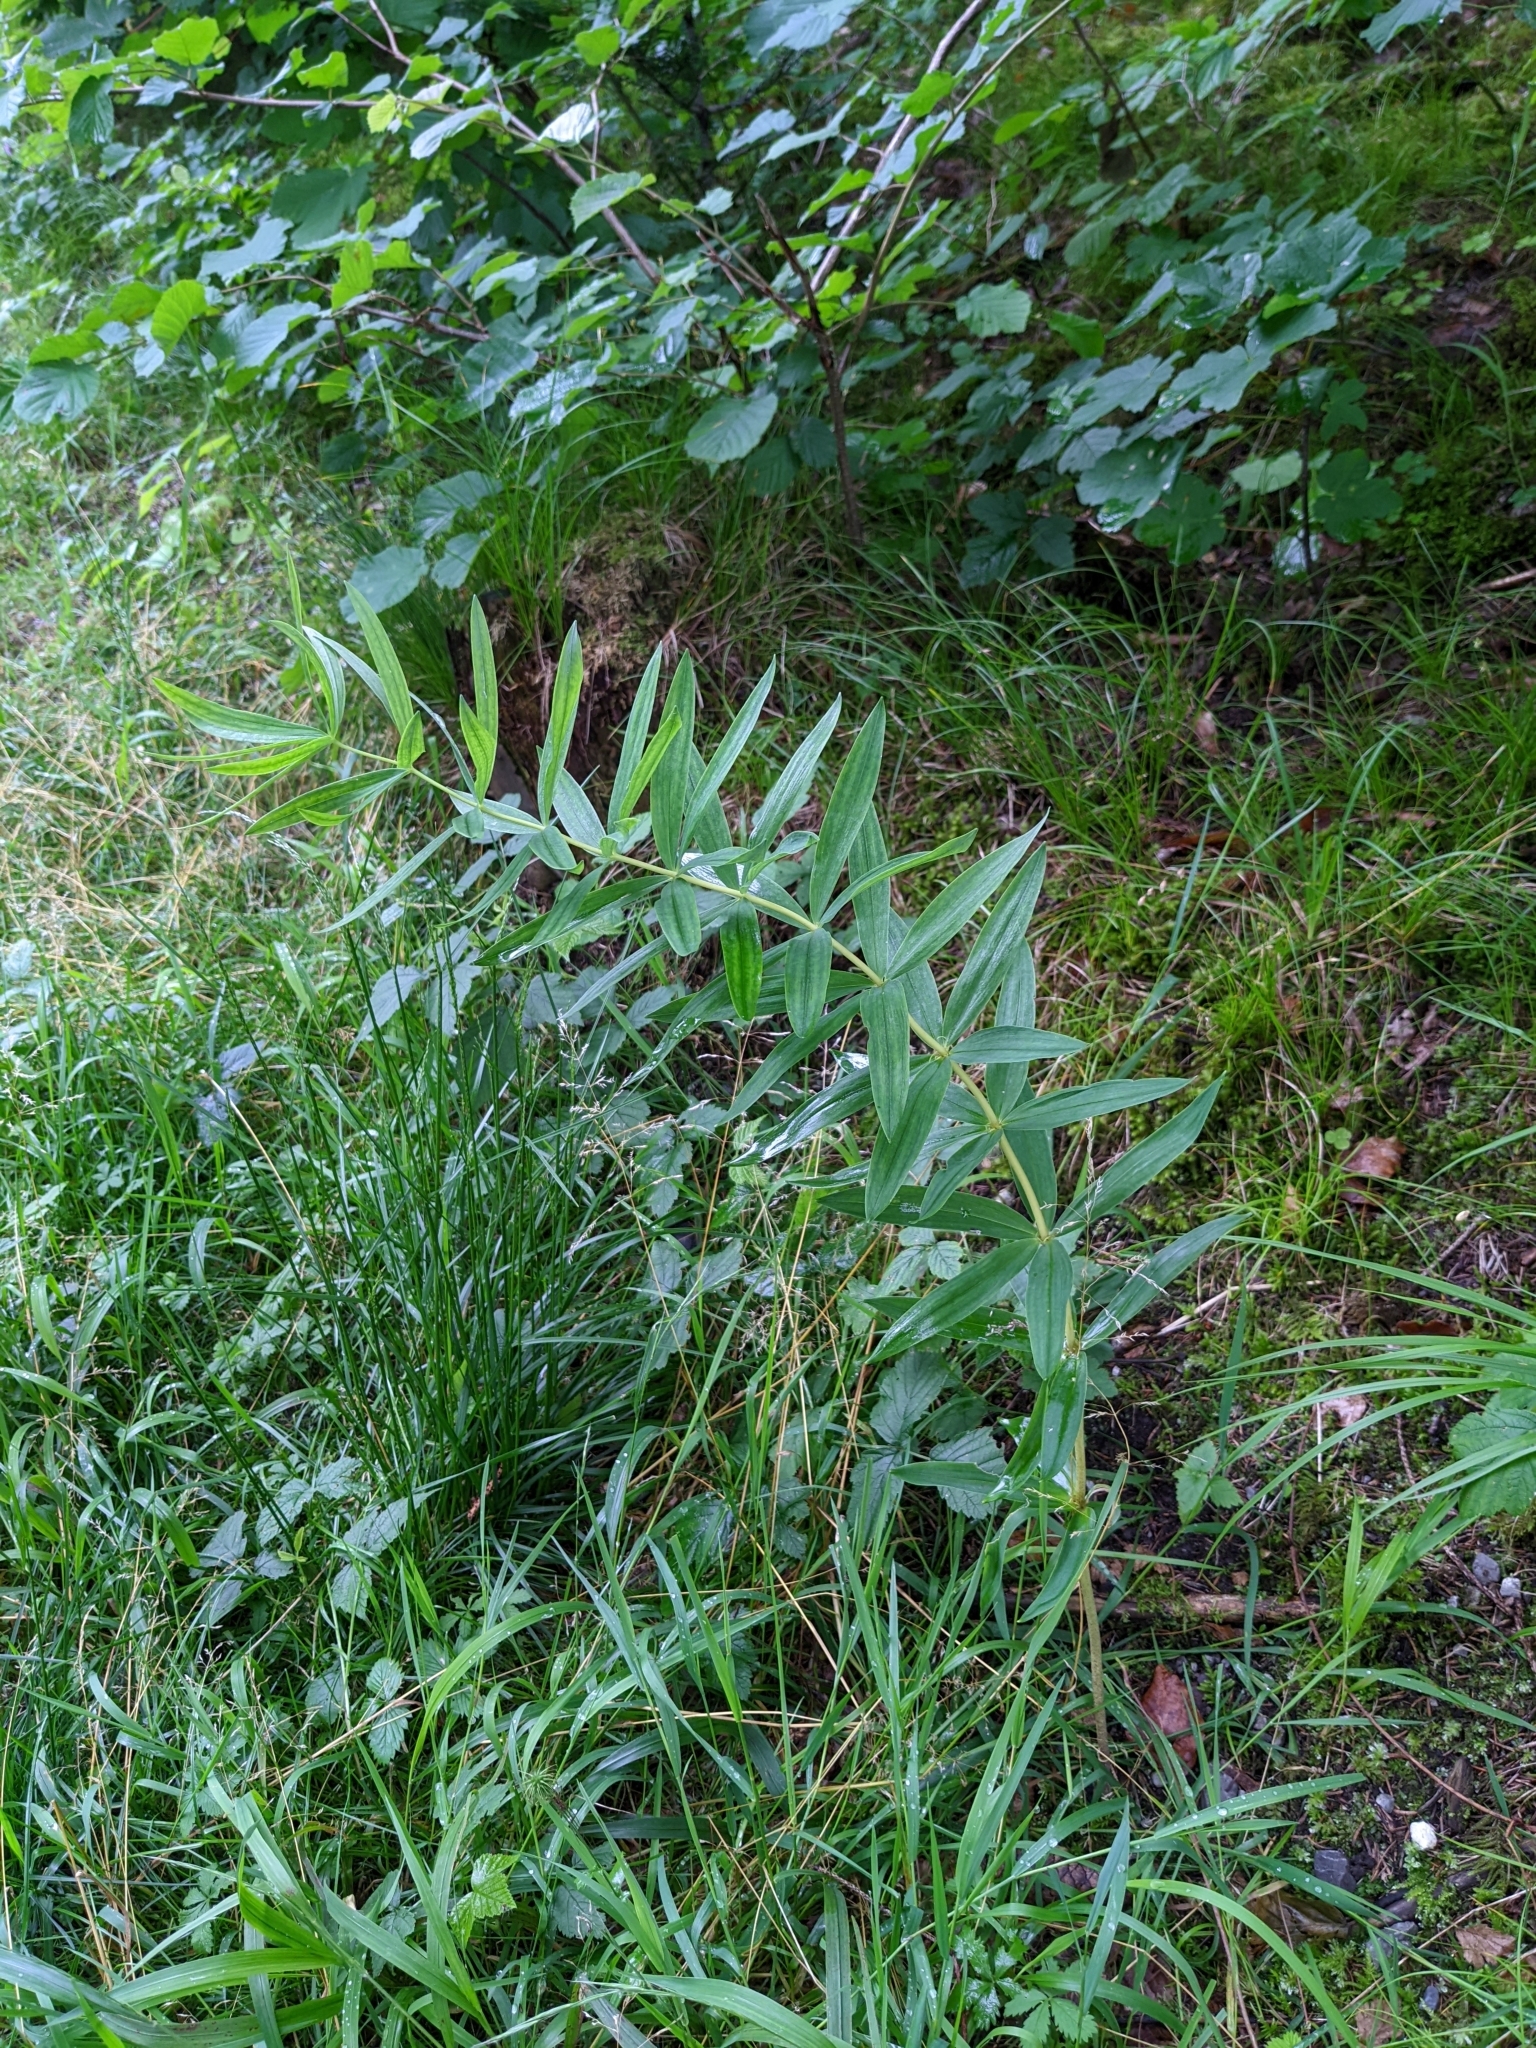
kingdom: Plantae
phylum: Tracheophyta
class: Liliopsida
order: Asparagales
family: Asparagaceae
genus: Polygonatum
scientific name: Polygonatum verticillatum
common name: Whorled solomon's-seal
